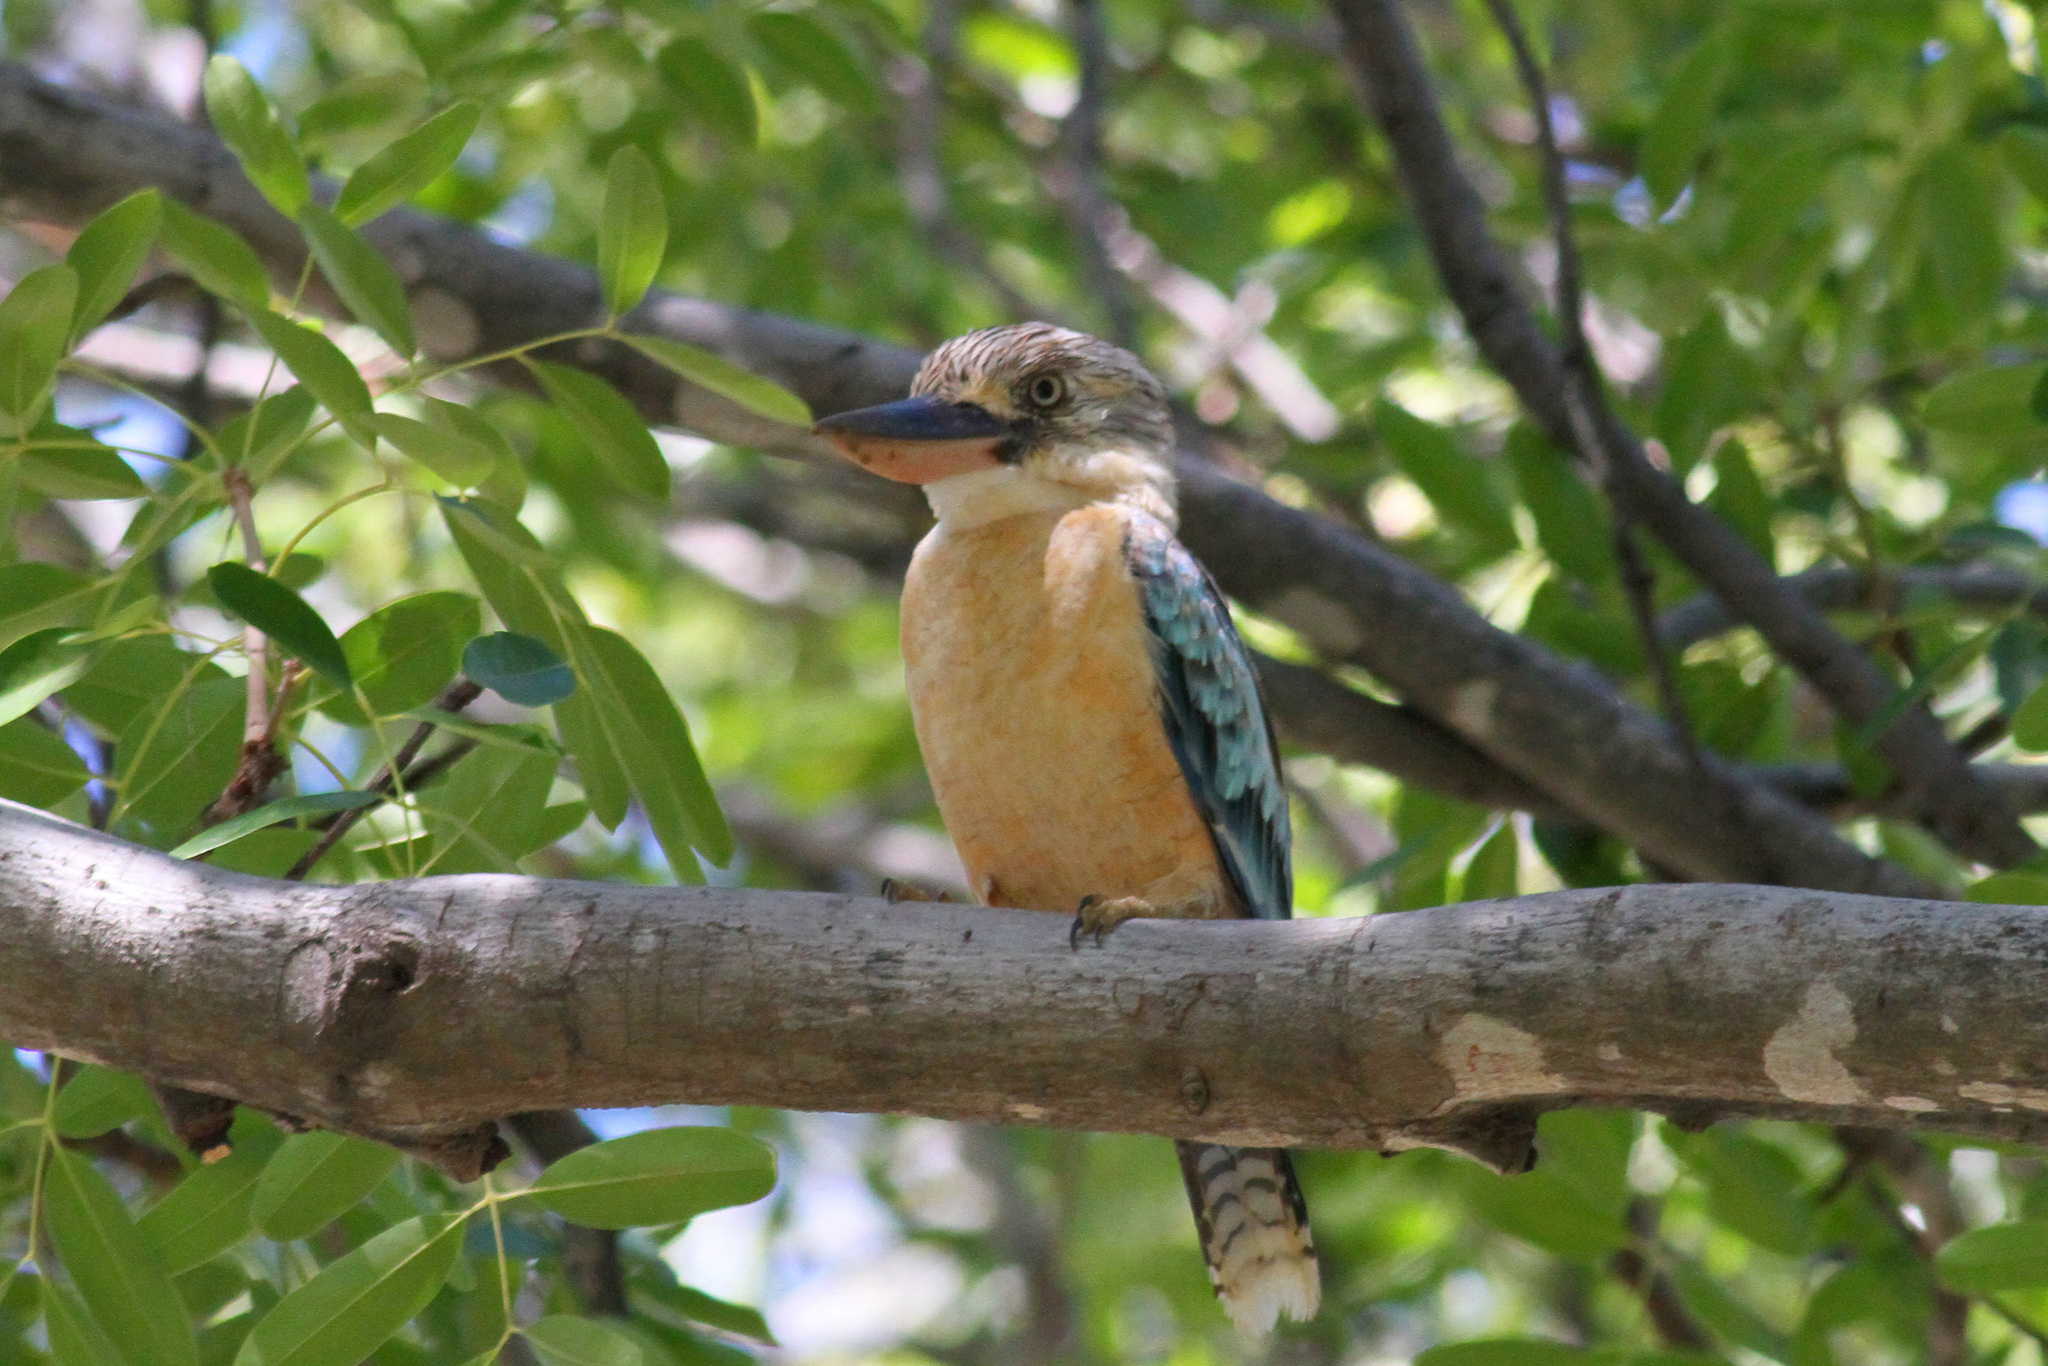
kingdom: Animalia
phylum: Chordata
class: Aves
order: Coraciiformes
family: Alcedinidae
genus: Dacelo
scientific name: Dacelo leachii
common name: Blue-winged kookaburra
